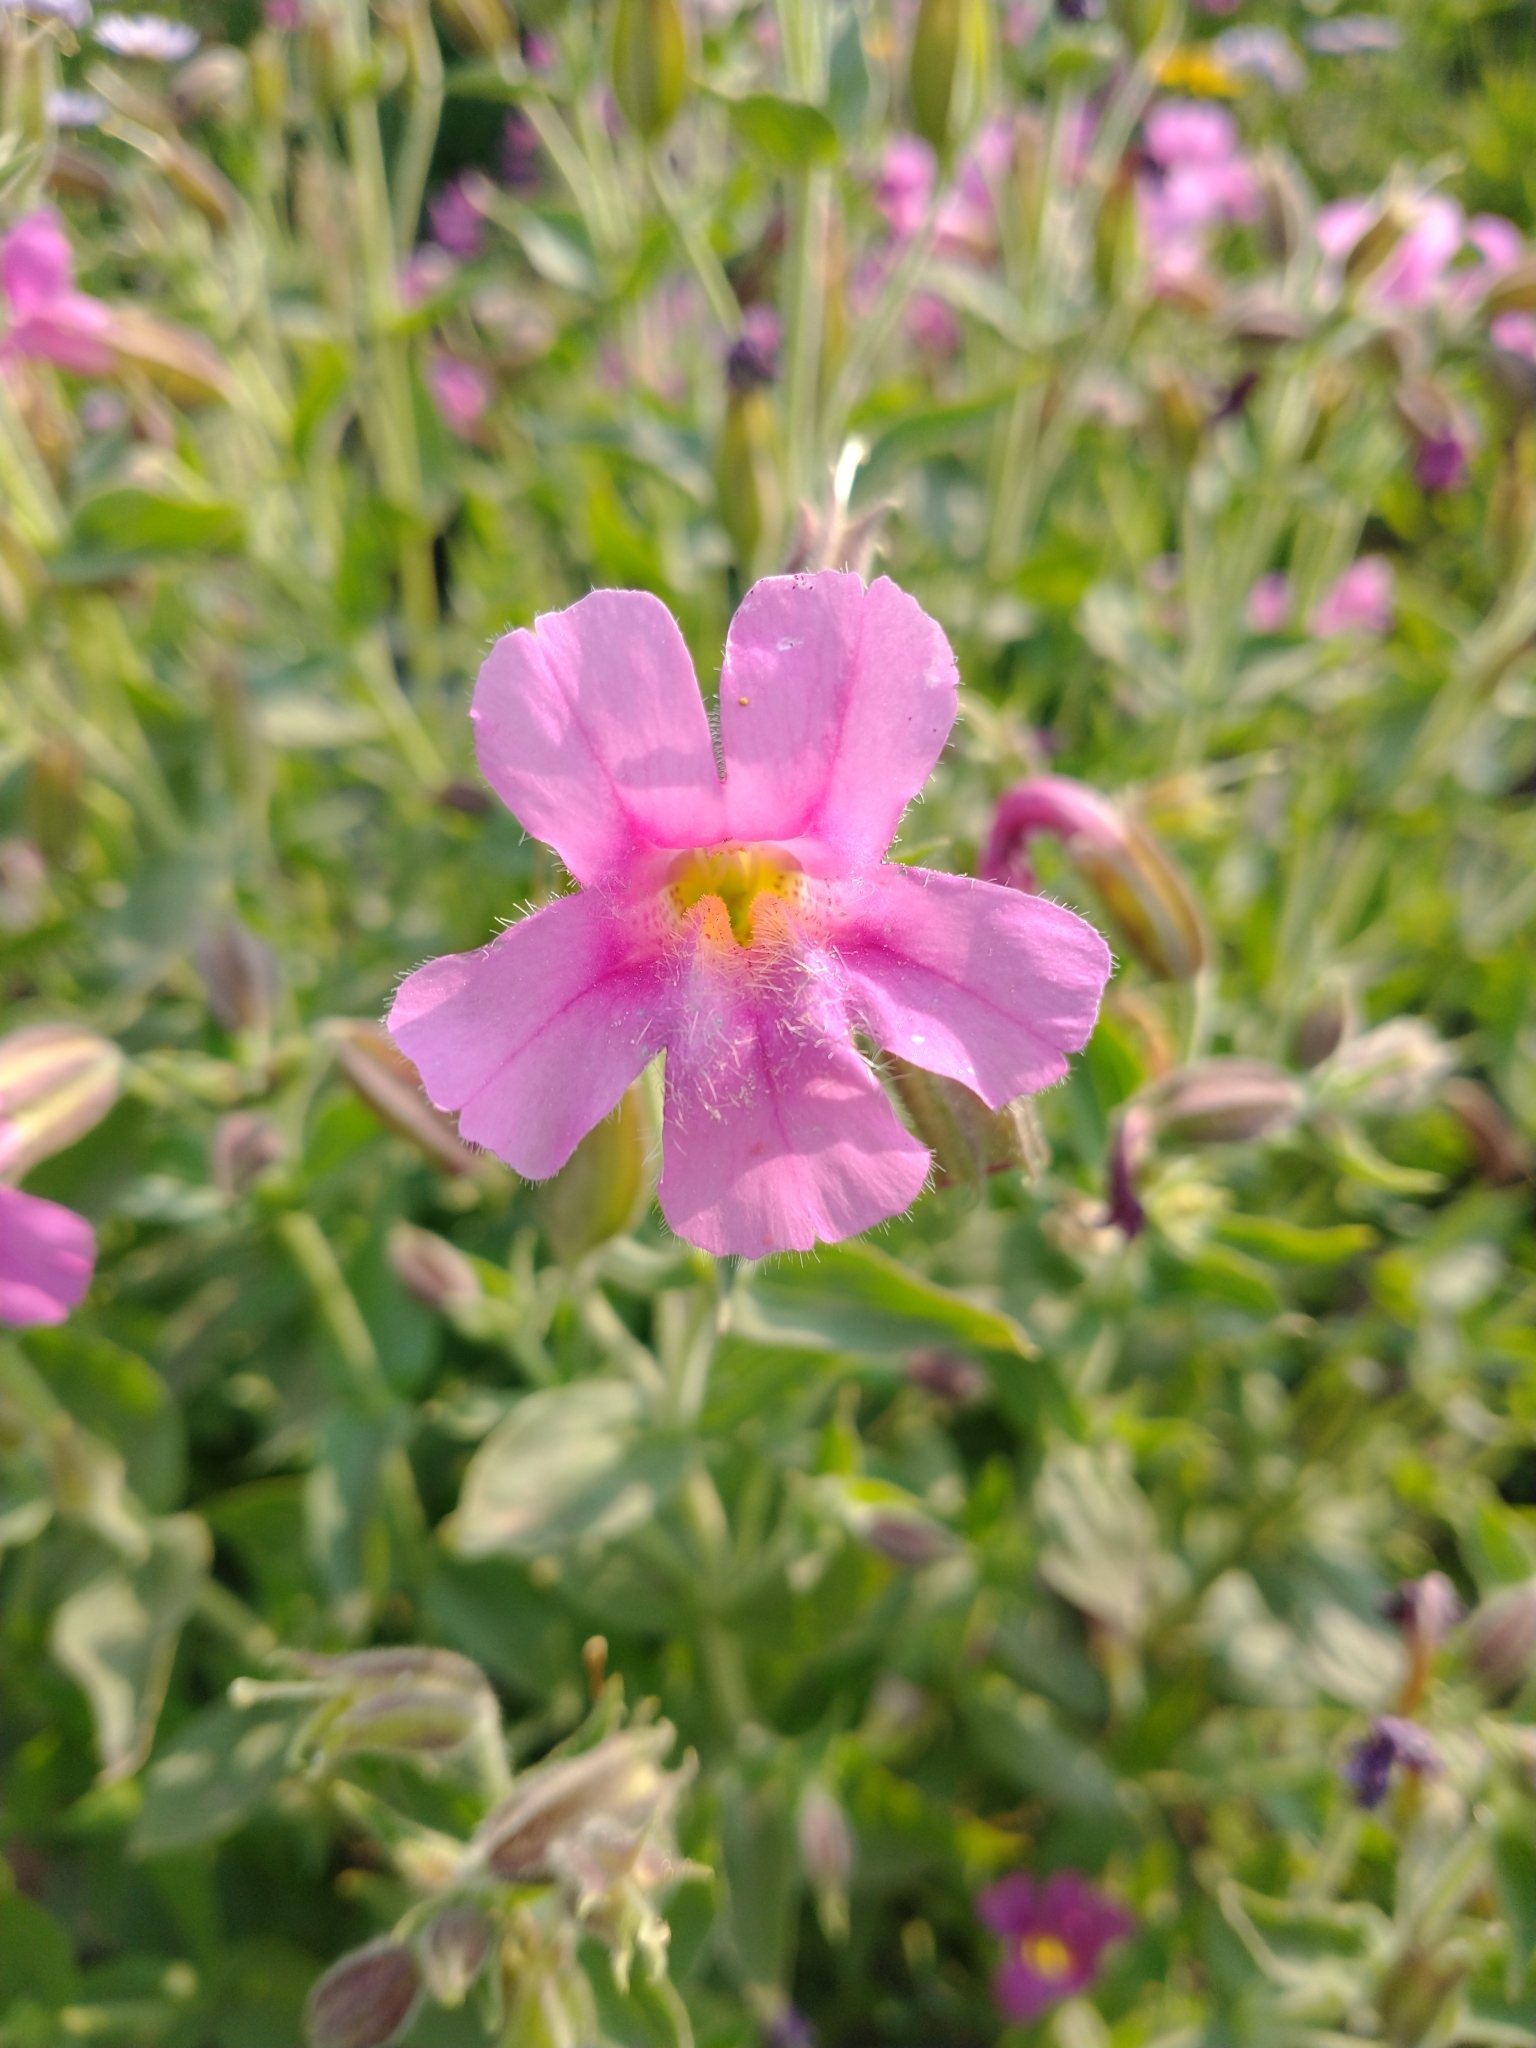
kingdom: Plantae
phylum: Tracheophyta
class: Magnoliopsida
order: Lamiales
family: Phrymaceae
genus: Erythranthe
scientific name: Erythranthe lewisii
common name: Lewis's monkey-flower
